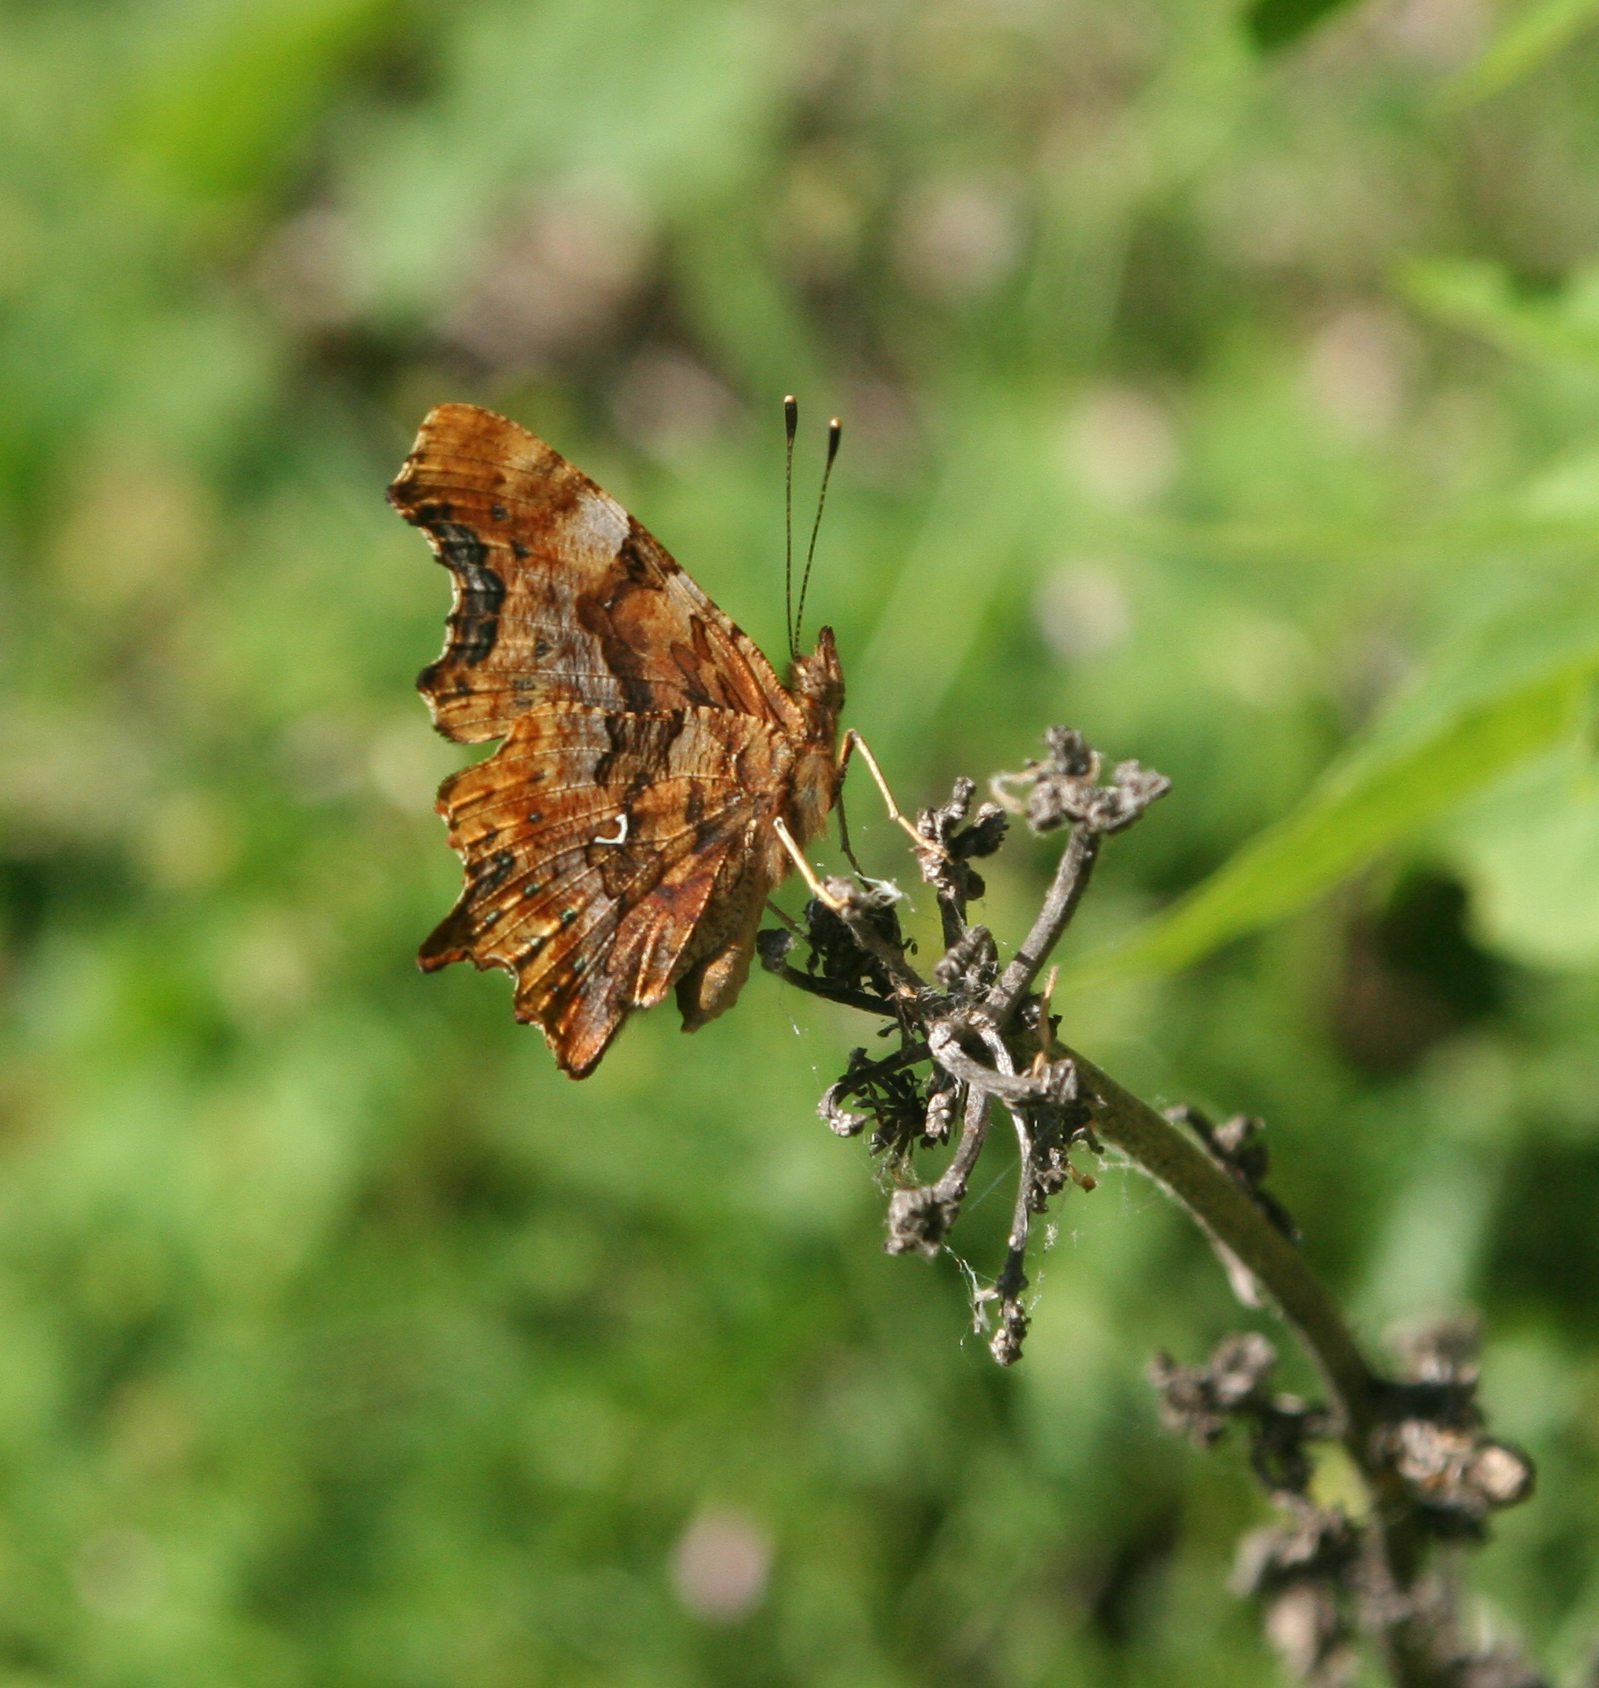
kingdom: Animalia
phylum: Arthropoda
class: Insecta
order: Lepidoptera
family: Nymphalidae
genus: Polygonia
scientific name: Polygonia c-album
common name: Comma
